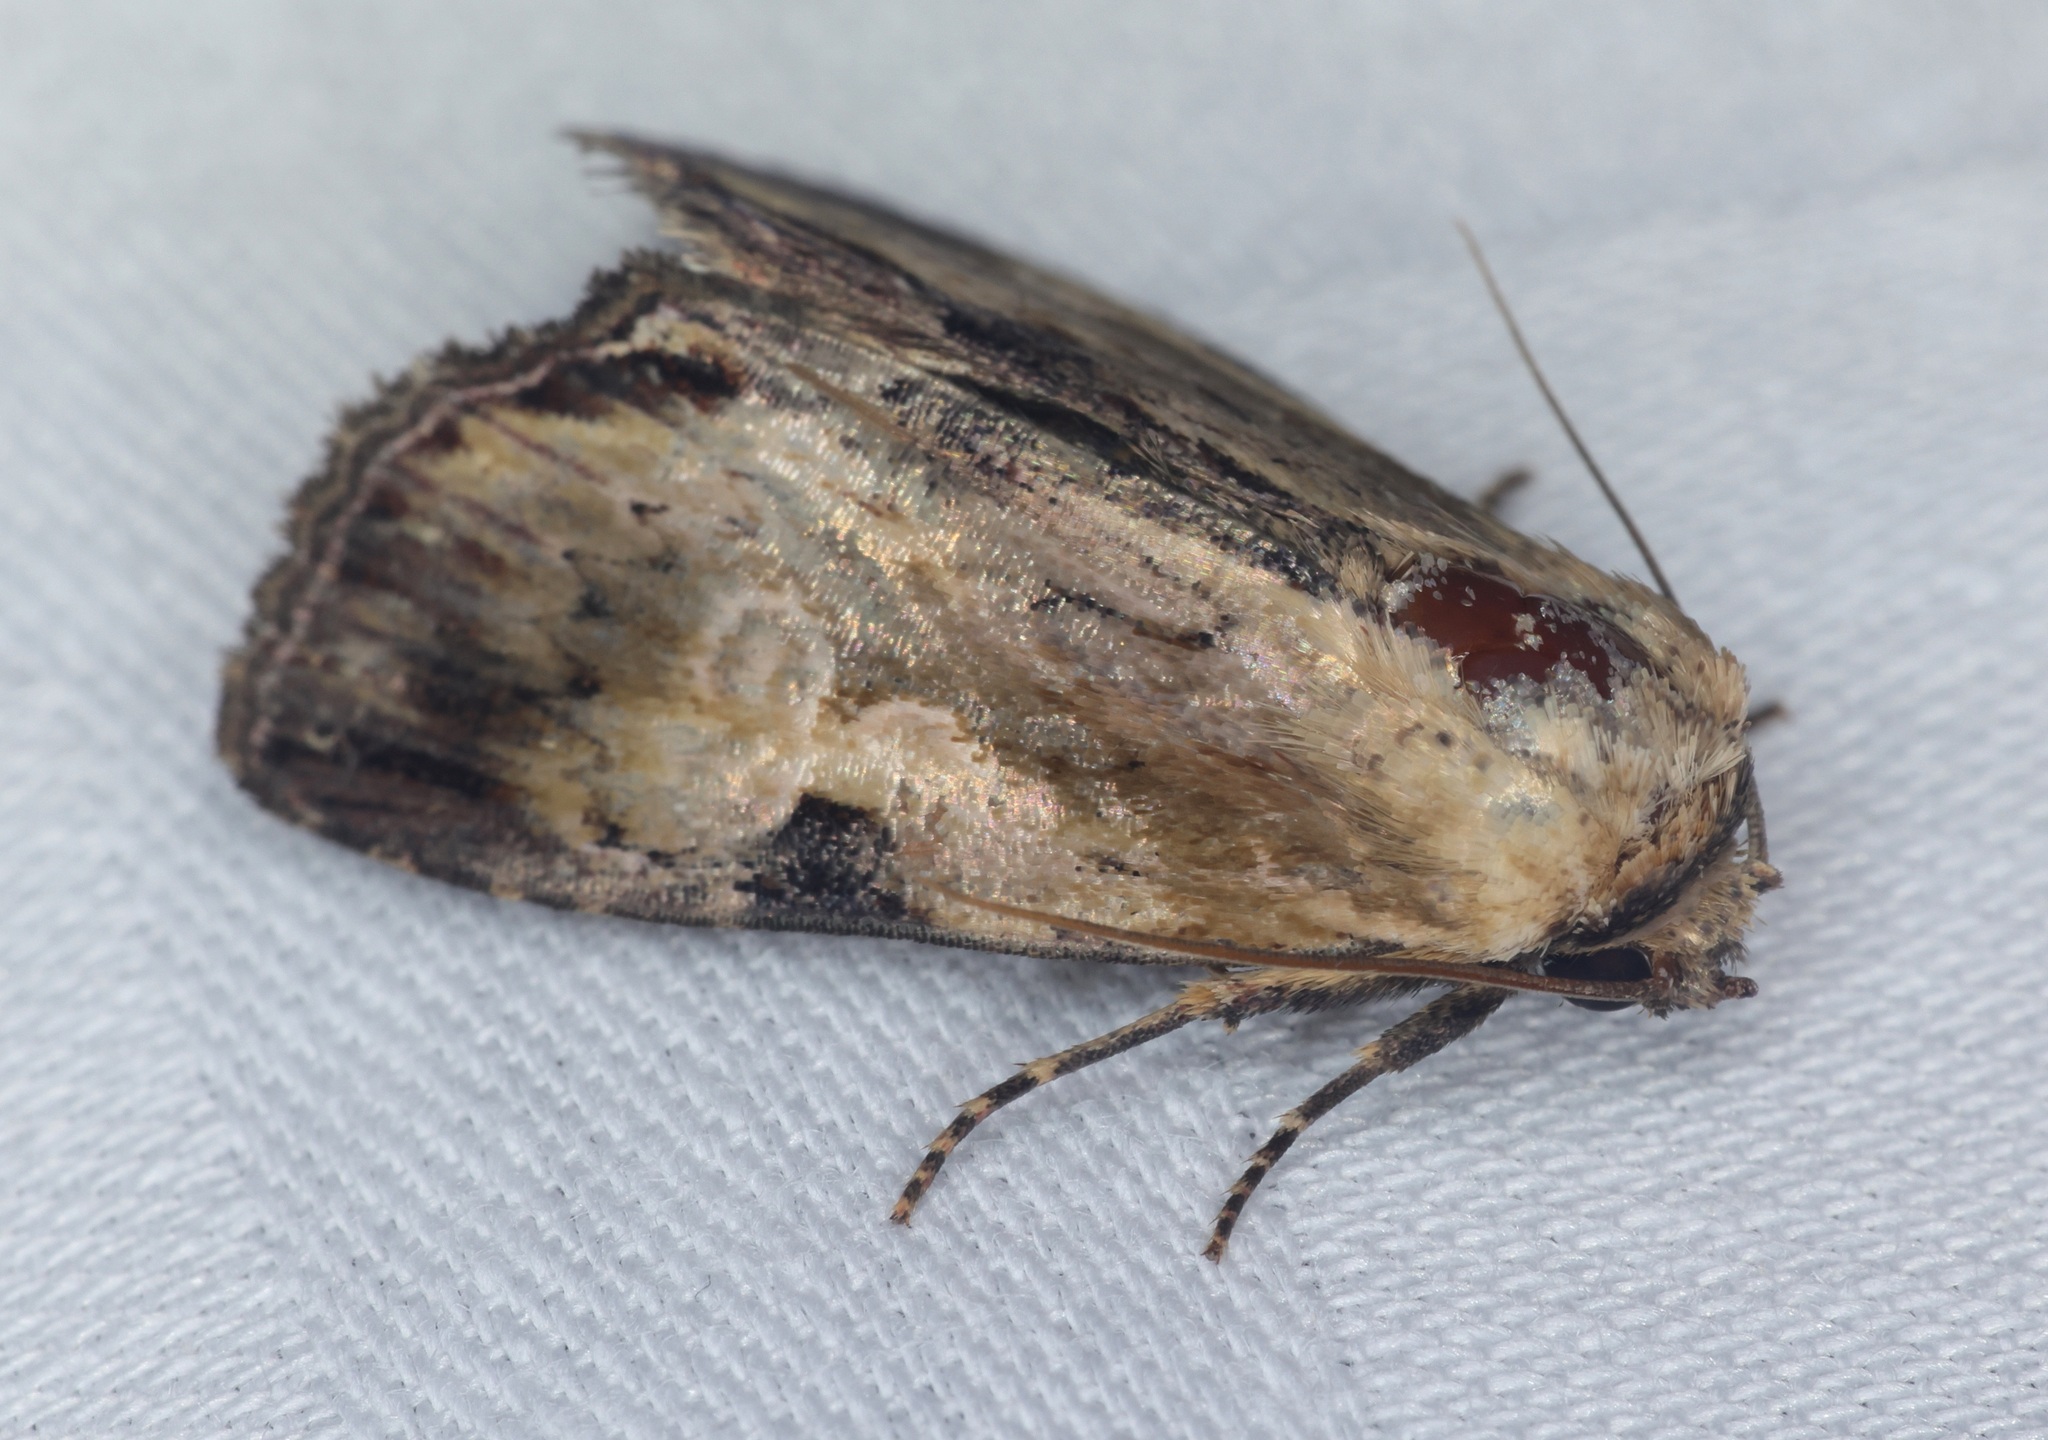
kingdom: Animalia
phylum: Arthropoda
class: Insecta
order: Lepidoptera
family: Noctuidae
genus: Antha
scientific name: Antha grata
